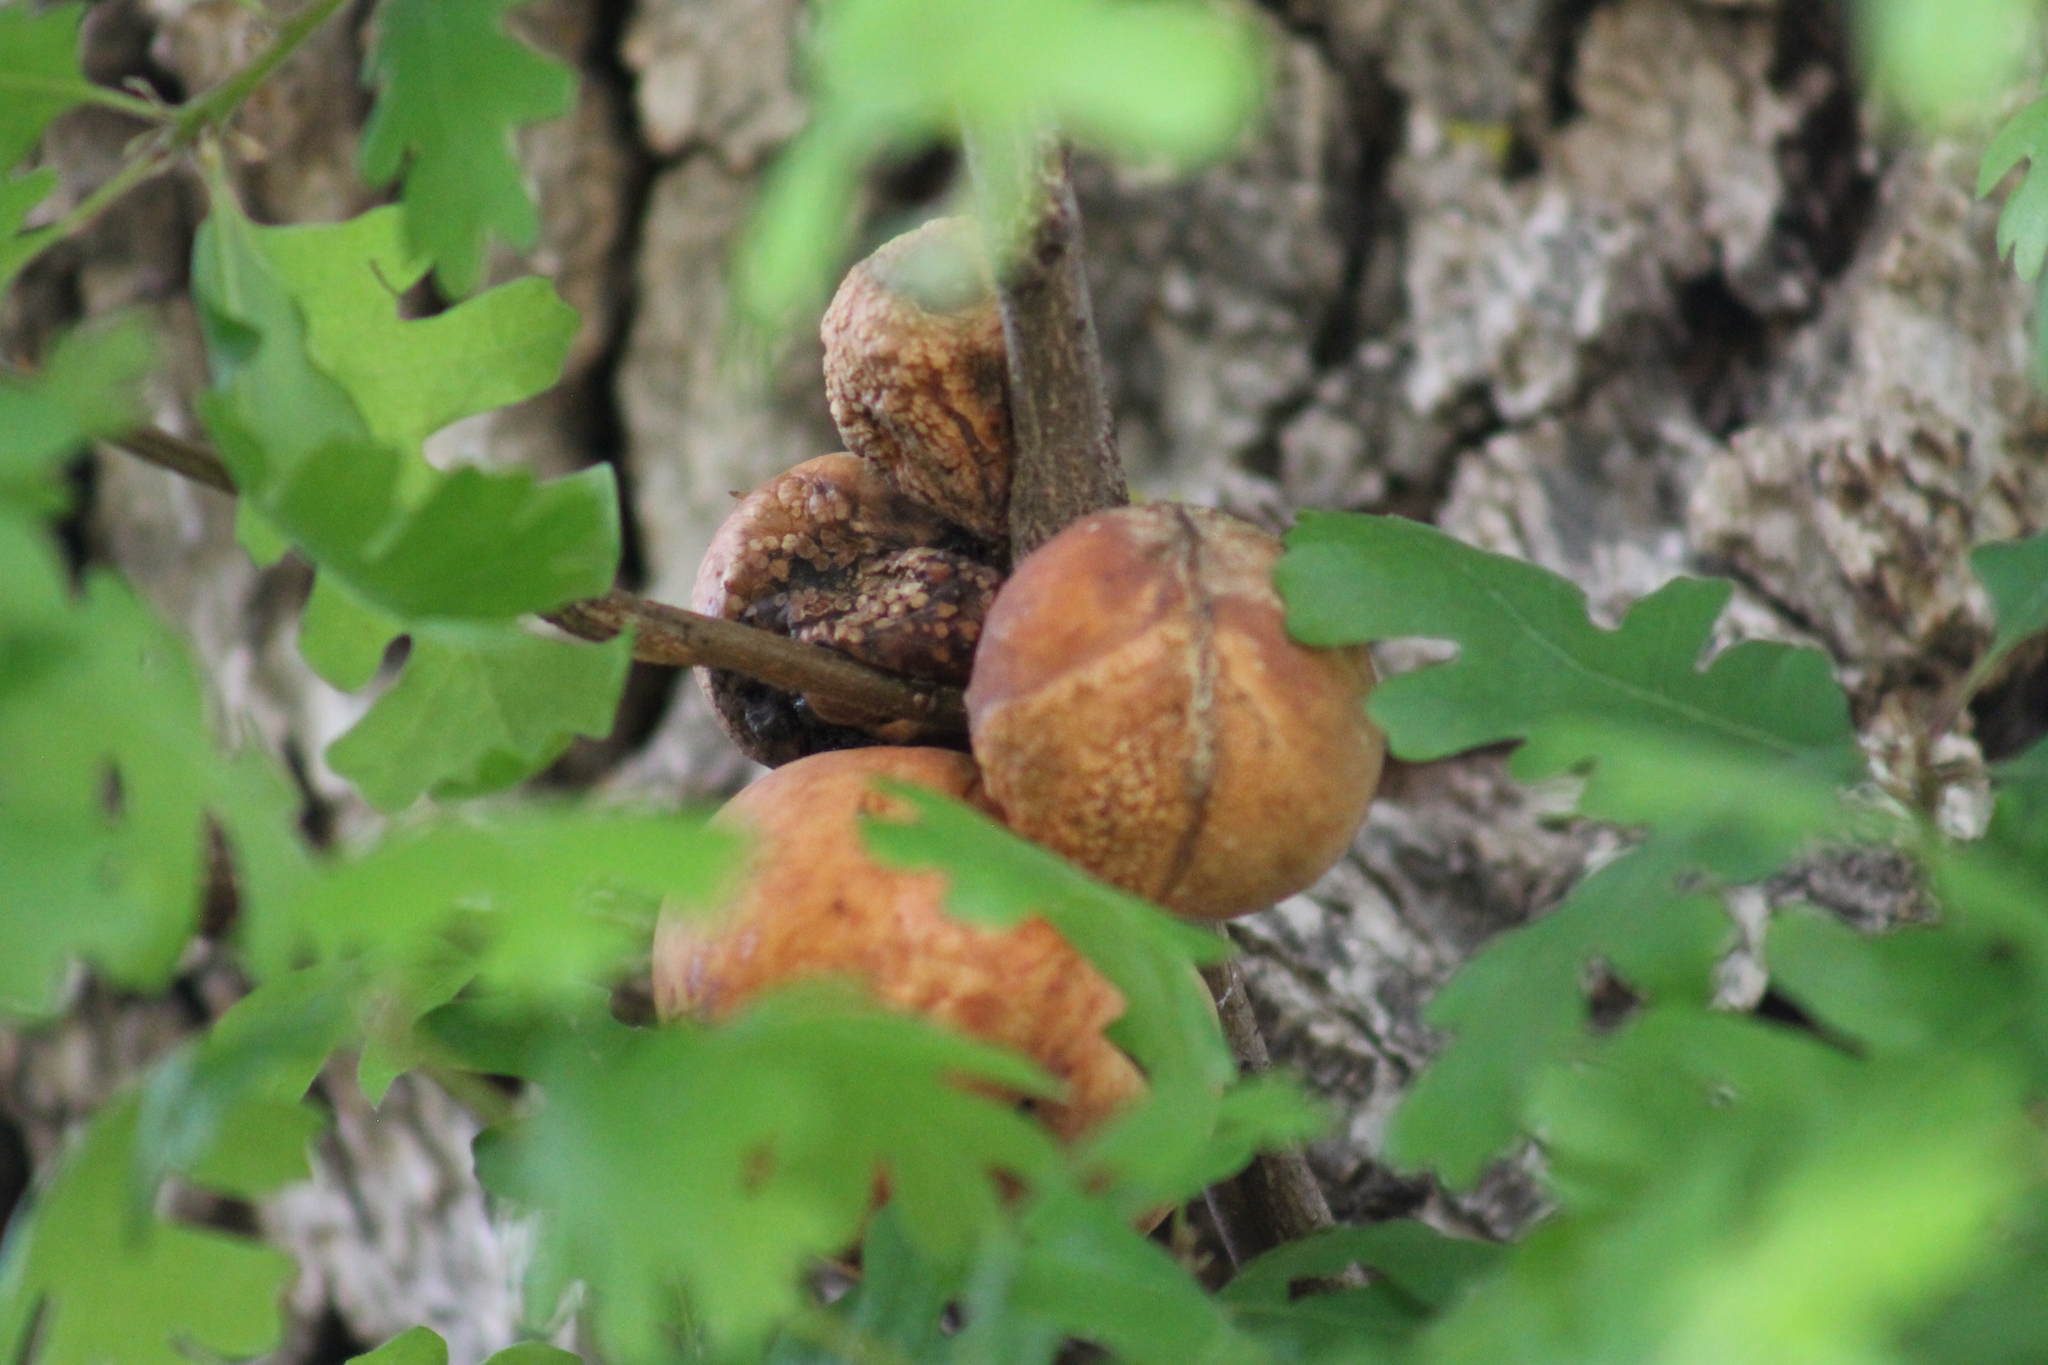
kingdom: Animalia
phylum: Arthropoda
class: Insecta
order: Hymenoptera
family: Cynipidae
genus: Andricus
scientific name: Andricus quercuscalifornicus
